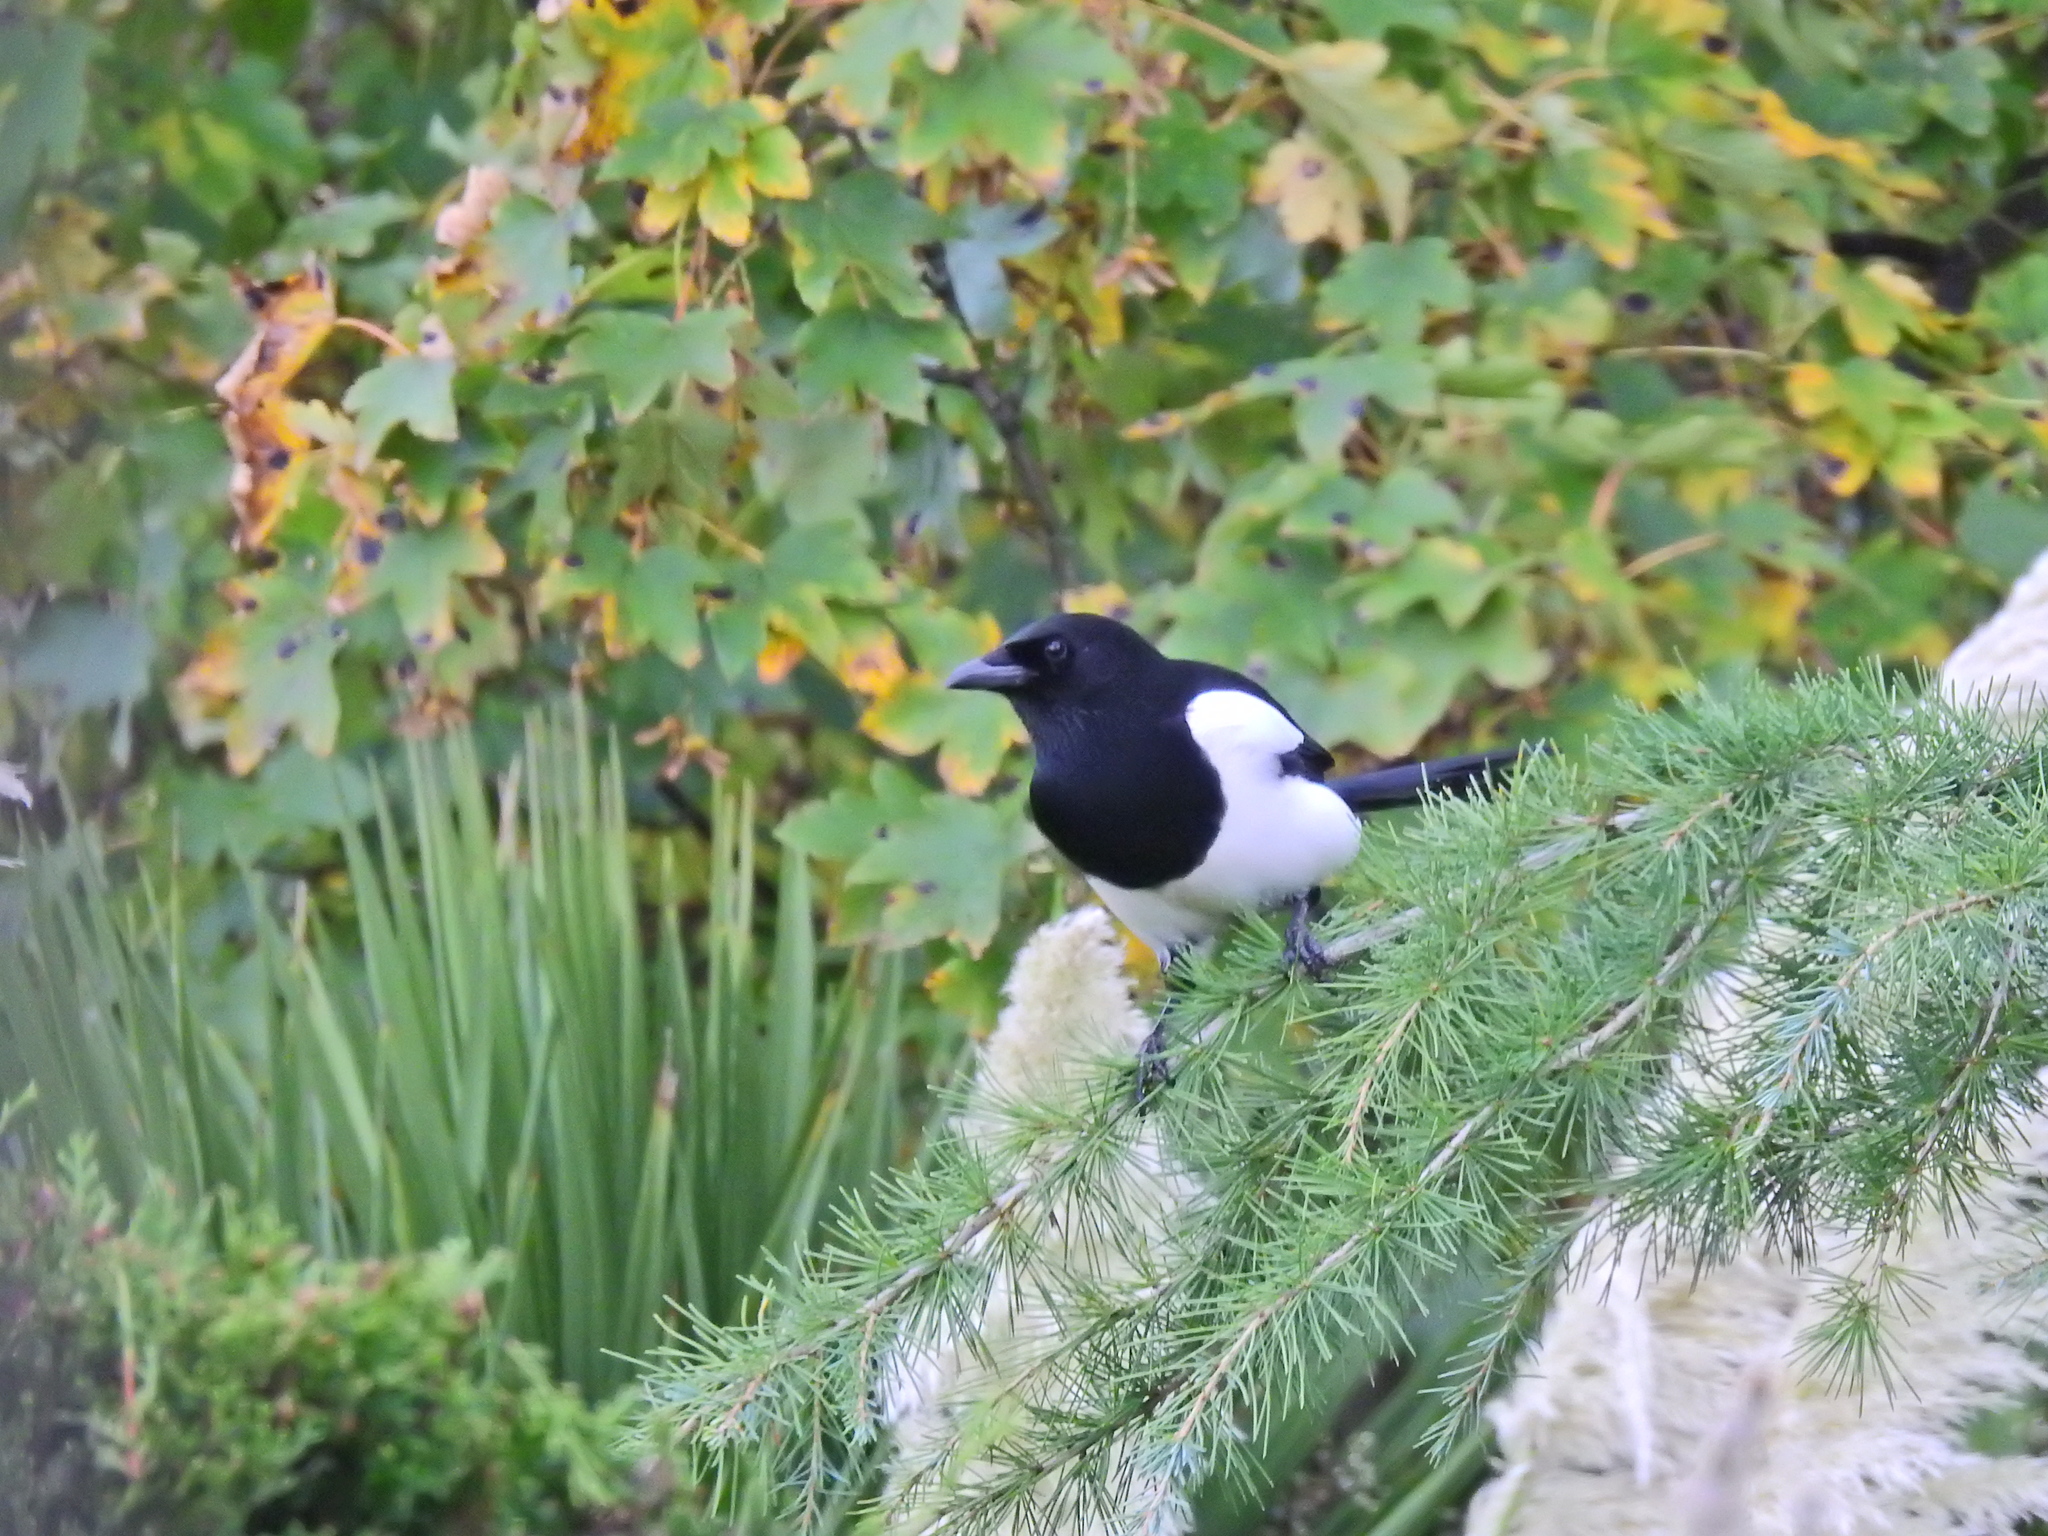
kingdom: Animalia
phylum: Chordata
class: Aves
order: Passeriformes
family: Corvidae
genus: Pica
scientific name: Pica pica
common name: Eurasian magpie
